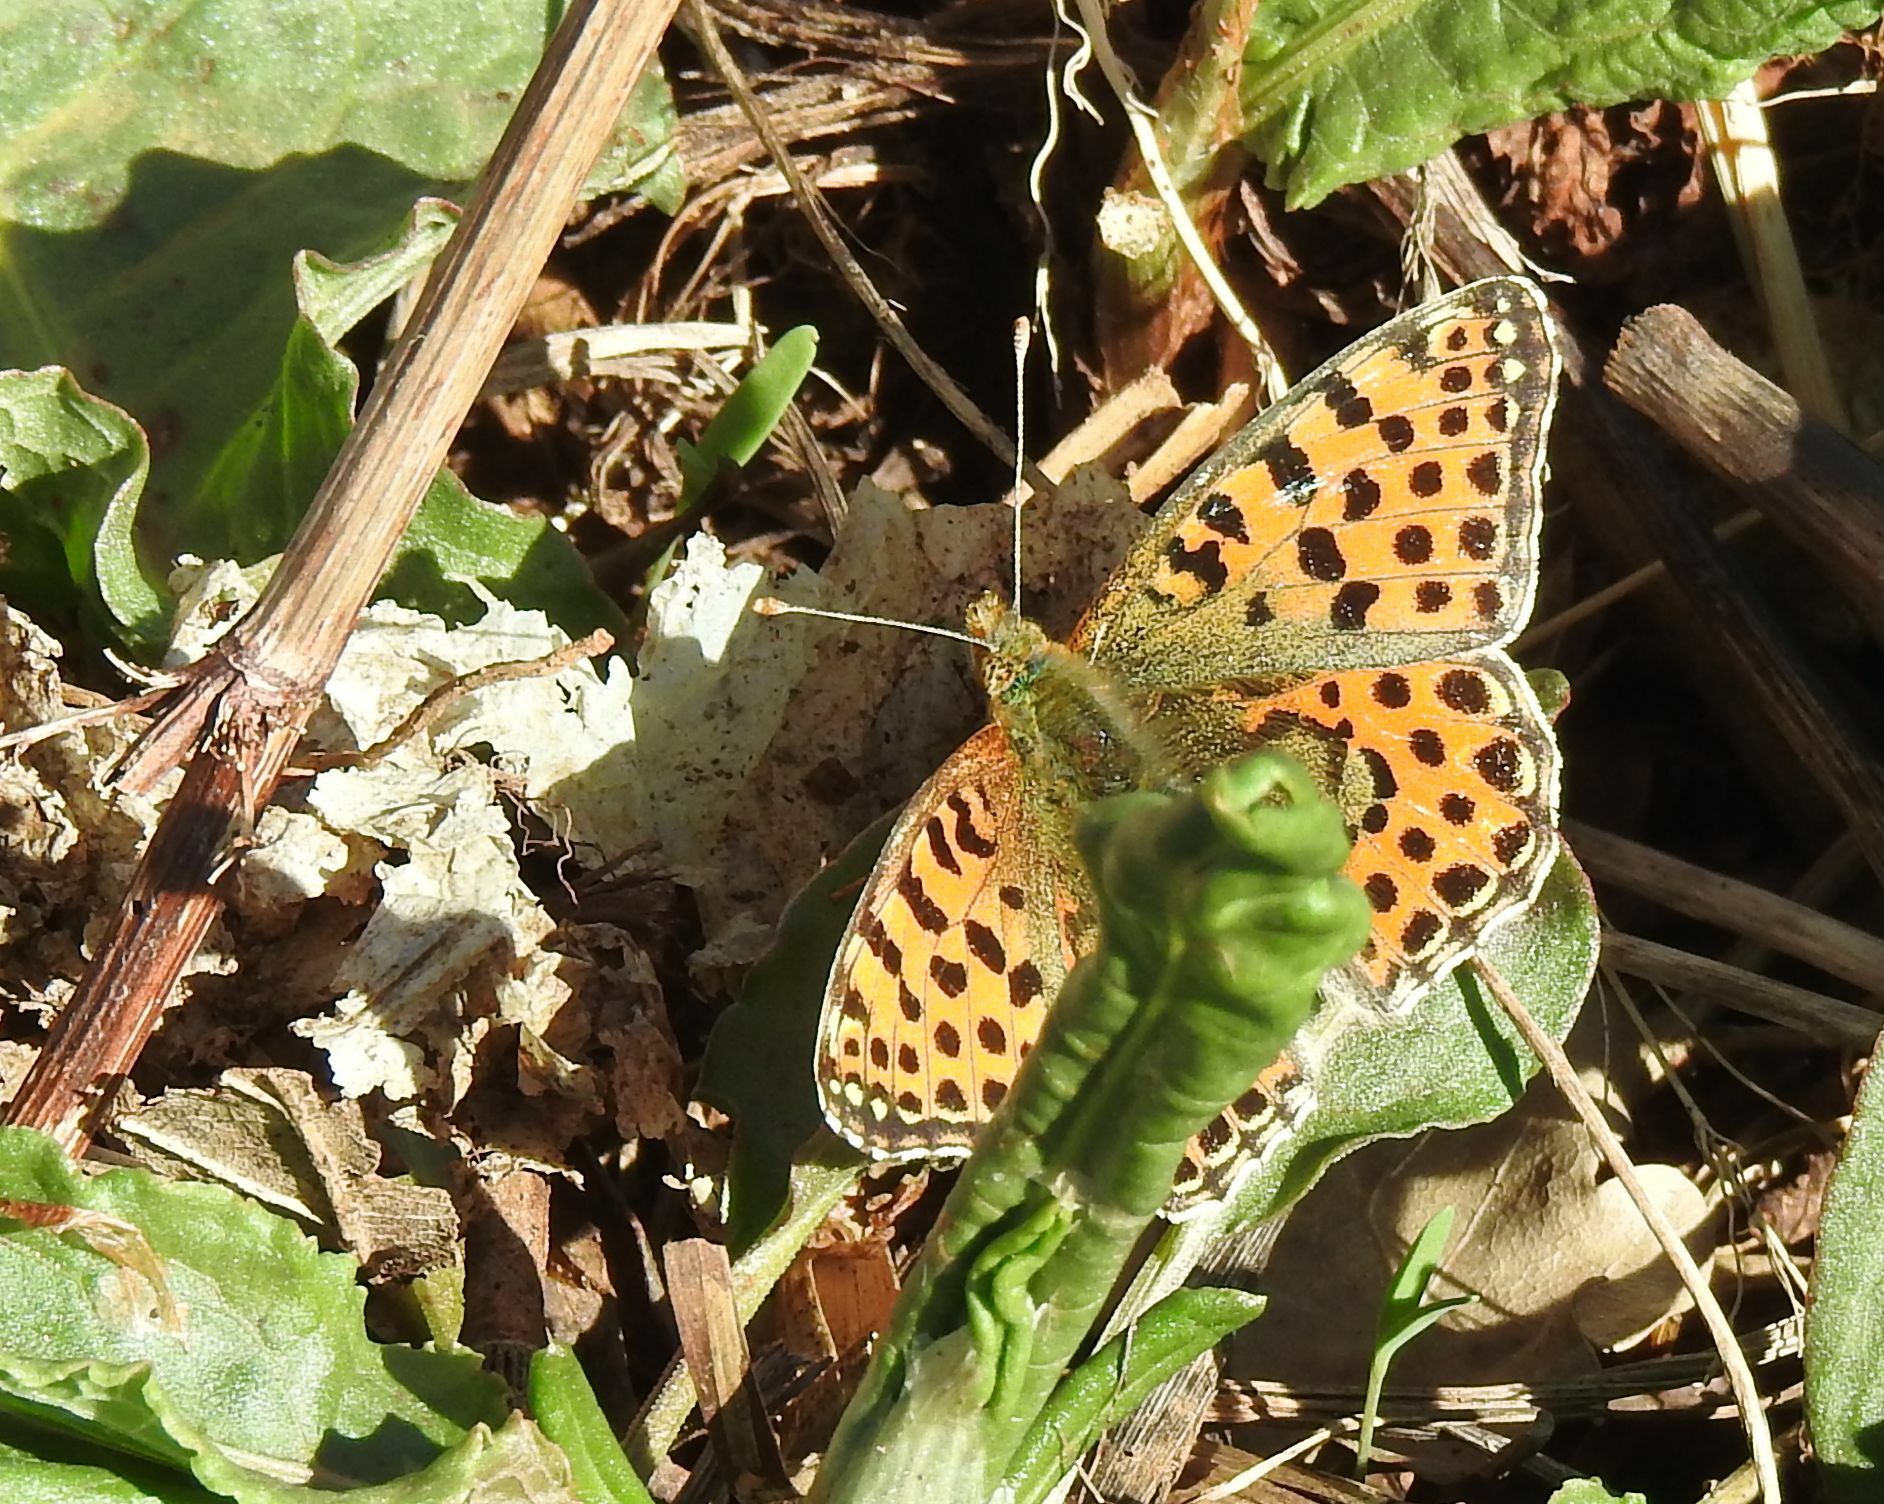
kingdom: Animalia
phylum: Arthropoda
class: Insecta
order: Lepidoptera
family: Nymphalidae
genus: Issoria
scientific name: Issoria lathonia
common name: Queen of spain fritillary
